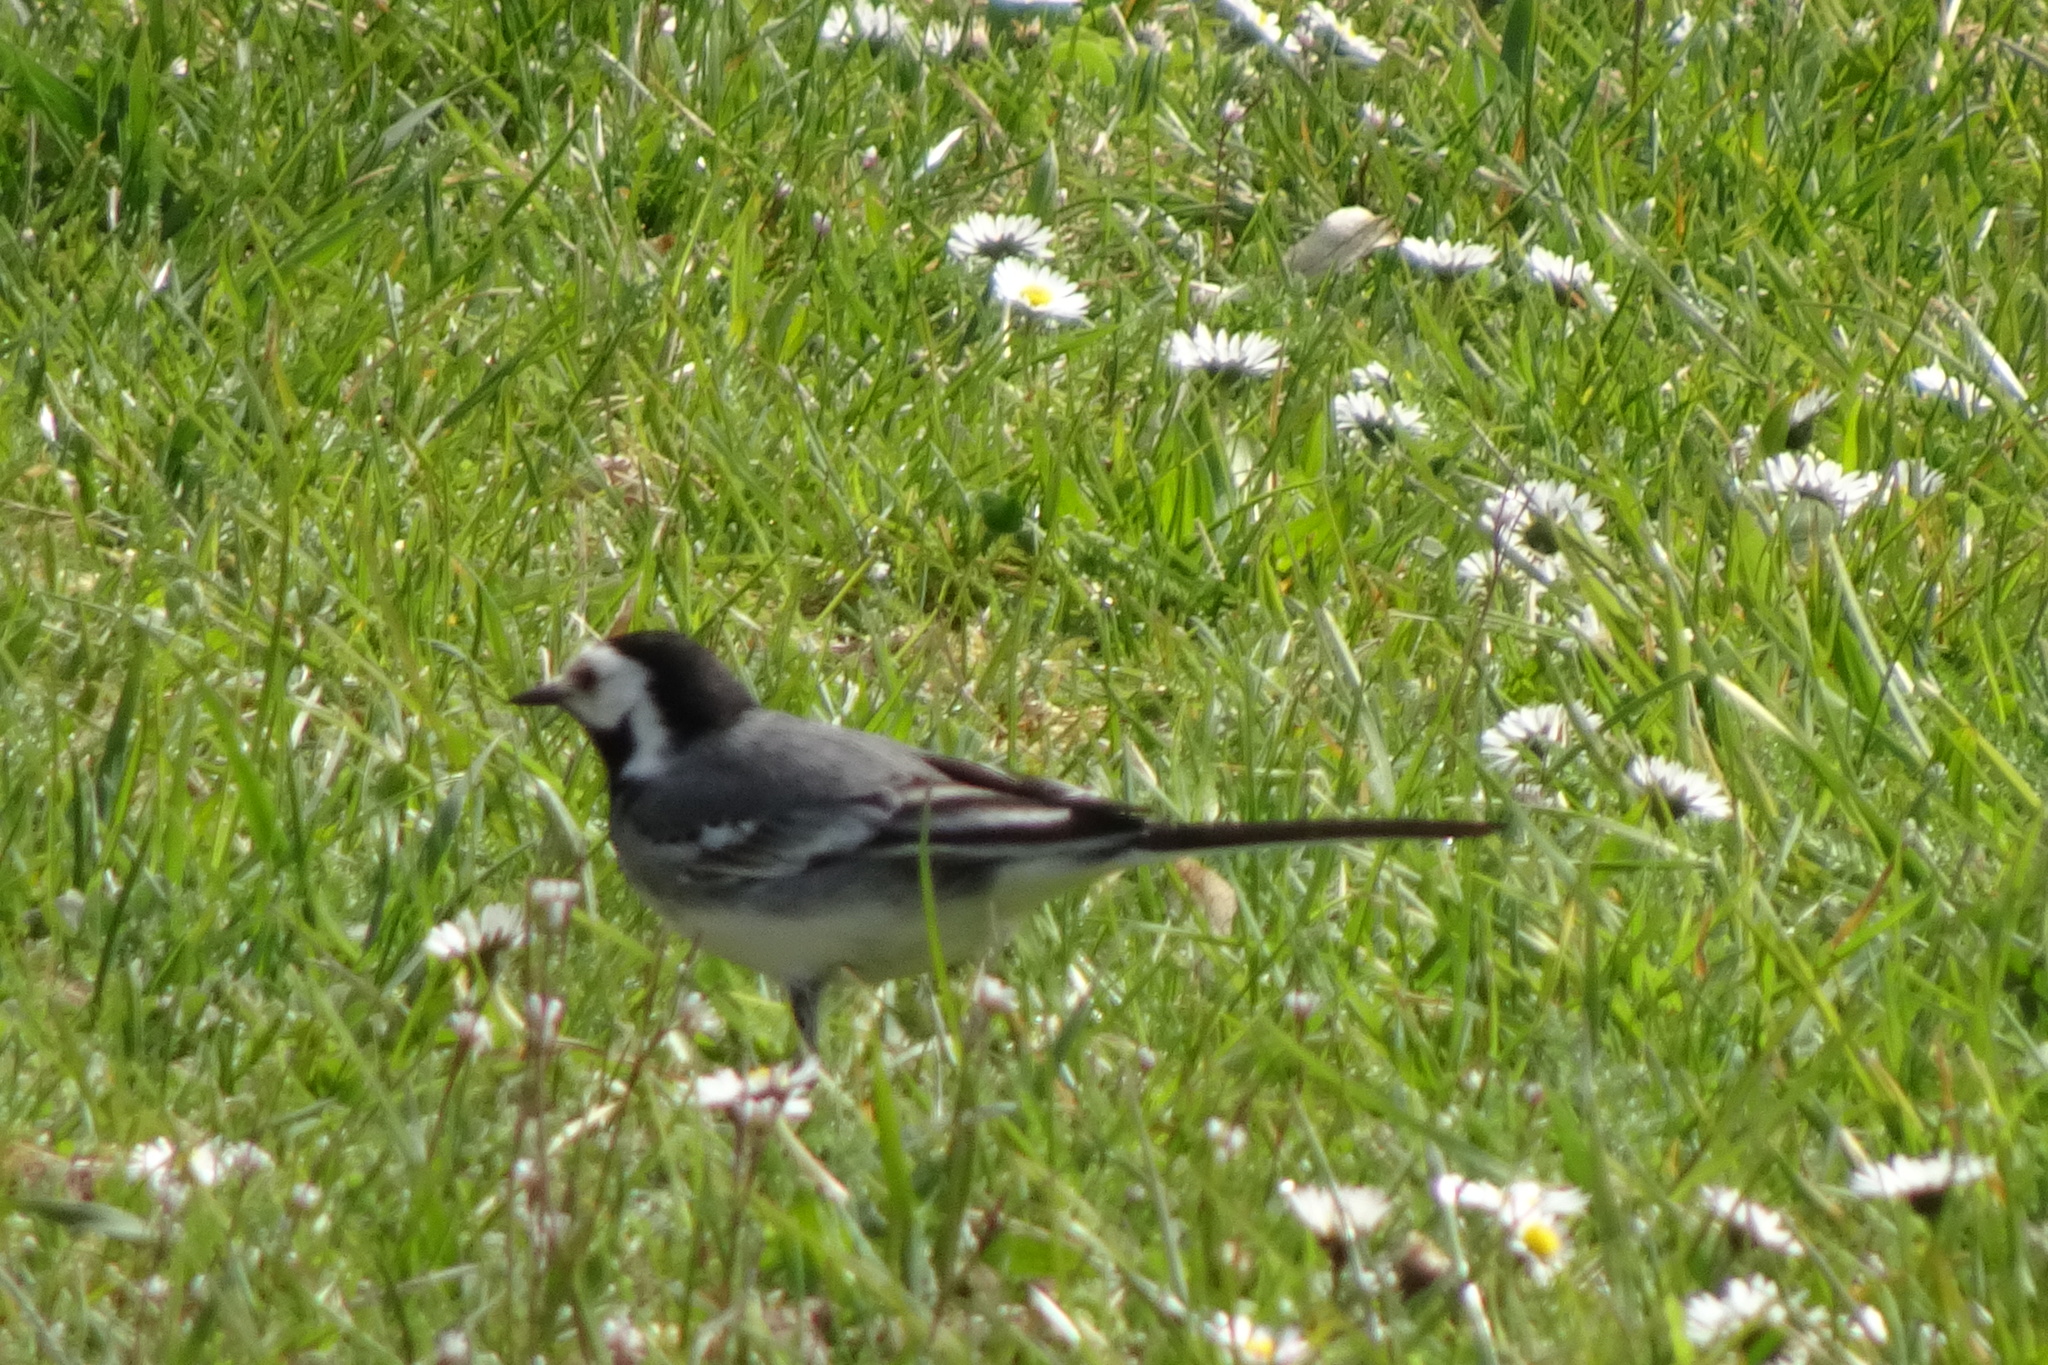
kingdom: Animalia
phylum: Chordata
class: Aves
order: Passeriformes
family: Motacillidae
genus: Motacilla
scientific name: Motacilla alba
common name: White wagtail
